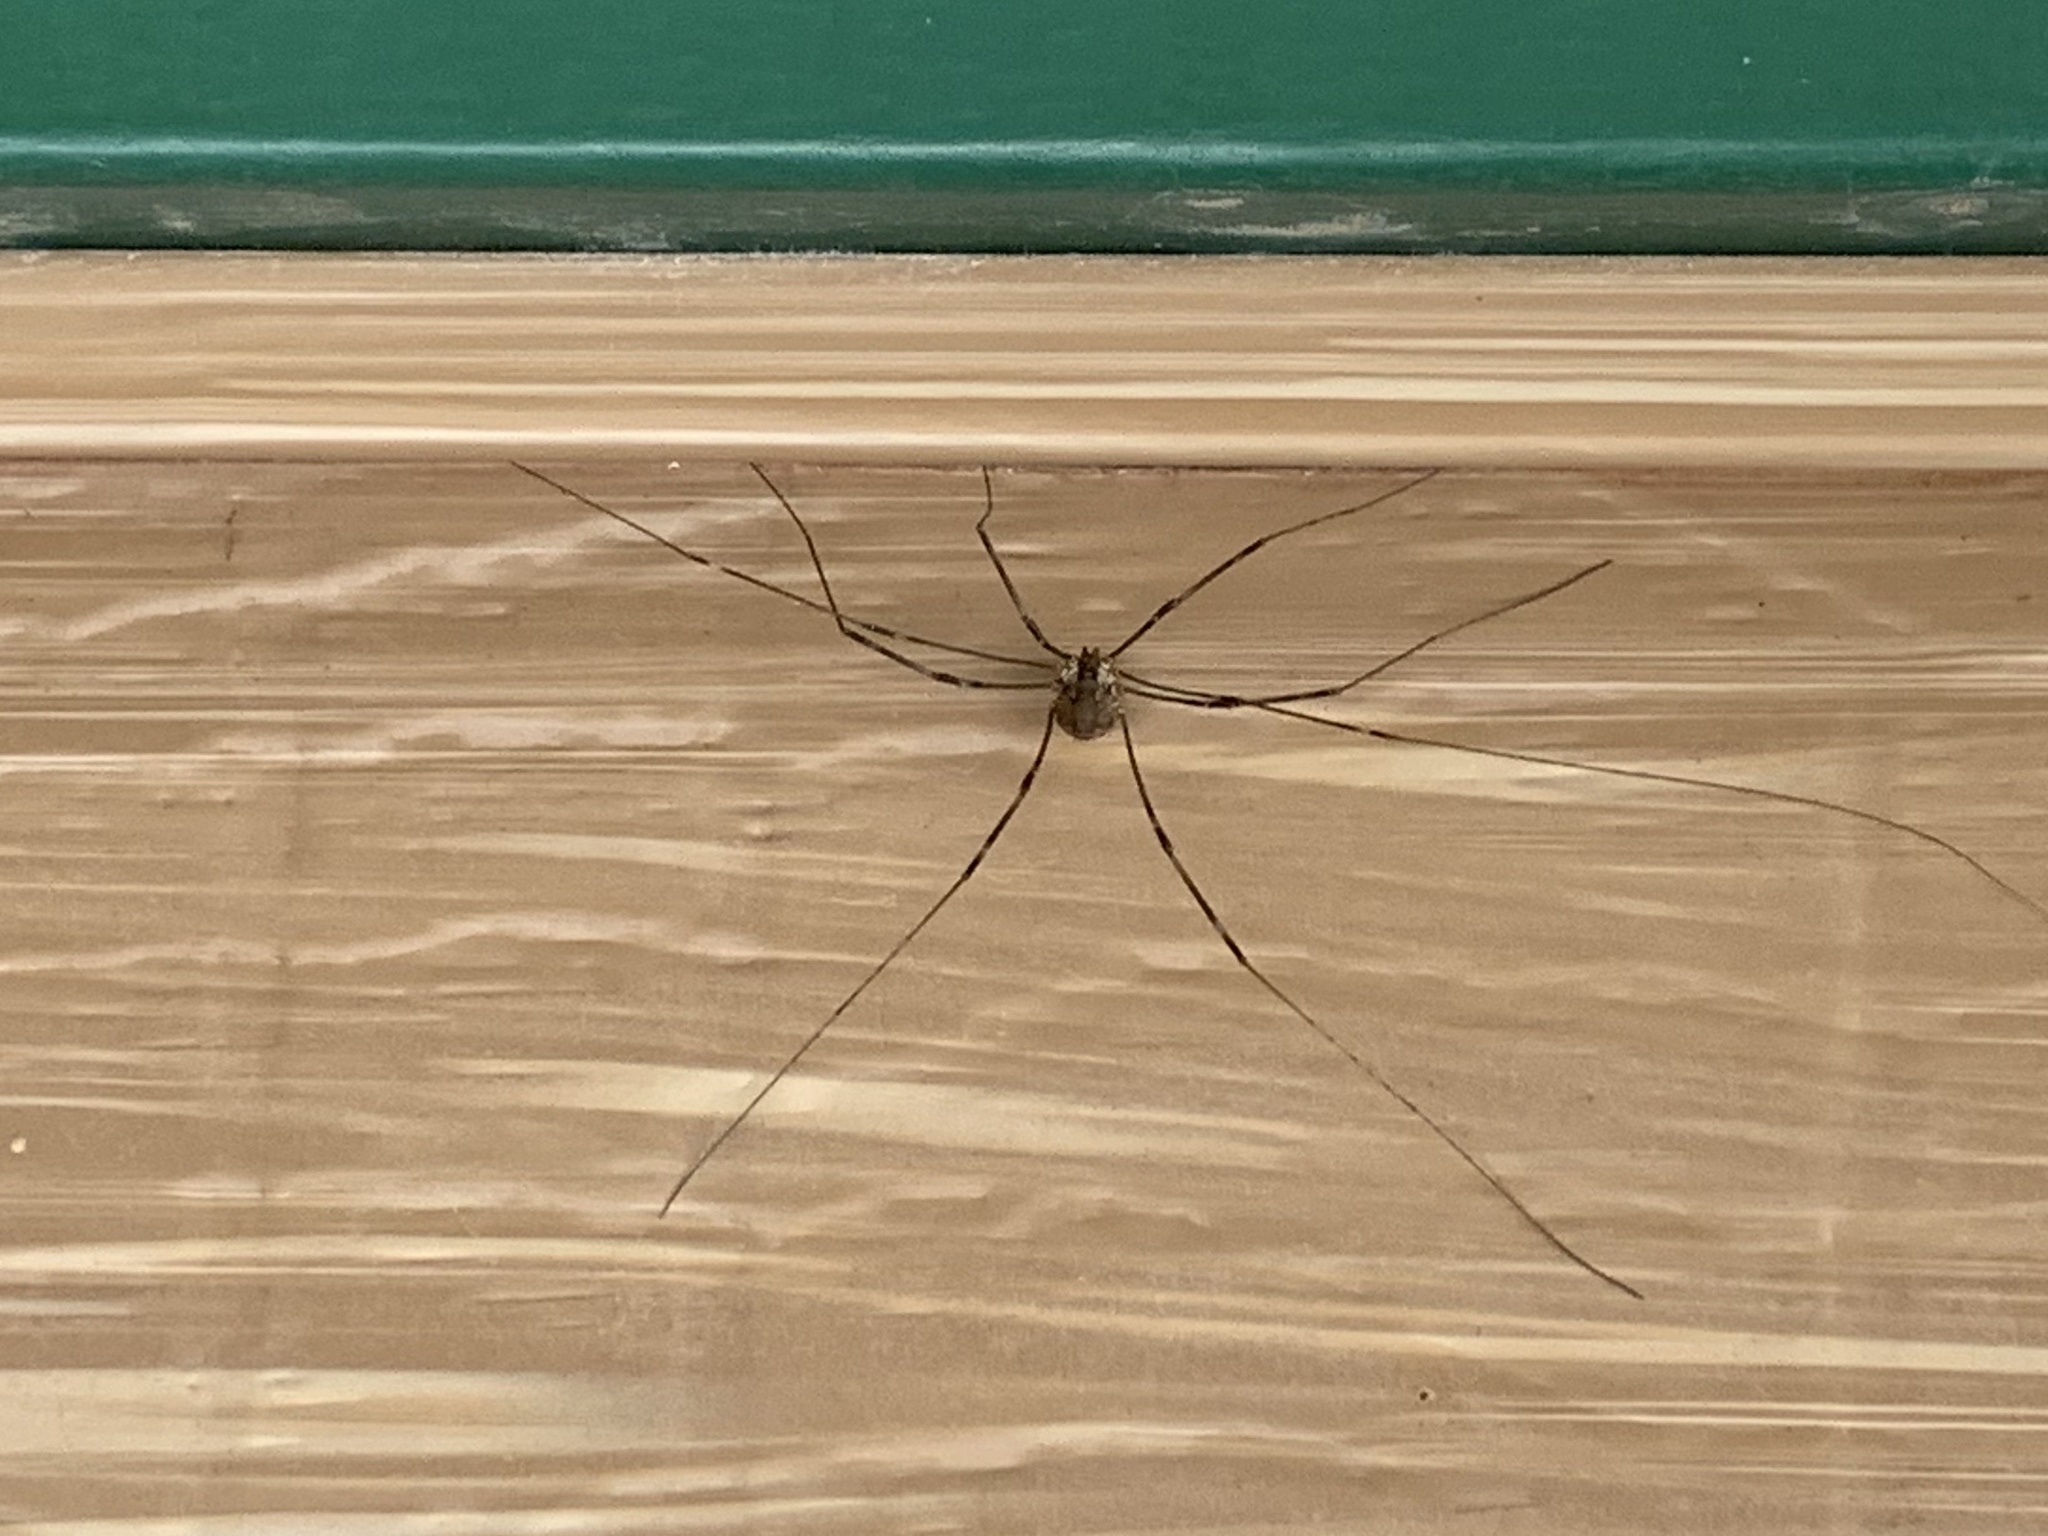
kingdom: Animalia
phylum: Arthropoda
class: Arachnida
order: Opiliones
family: Sclerosomatidae
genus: Leiobunum
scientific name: Leiobunum townsendi
